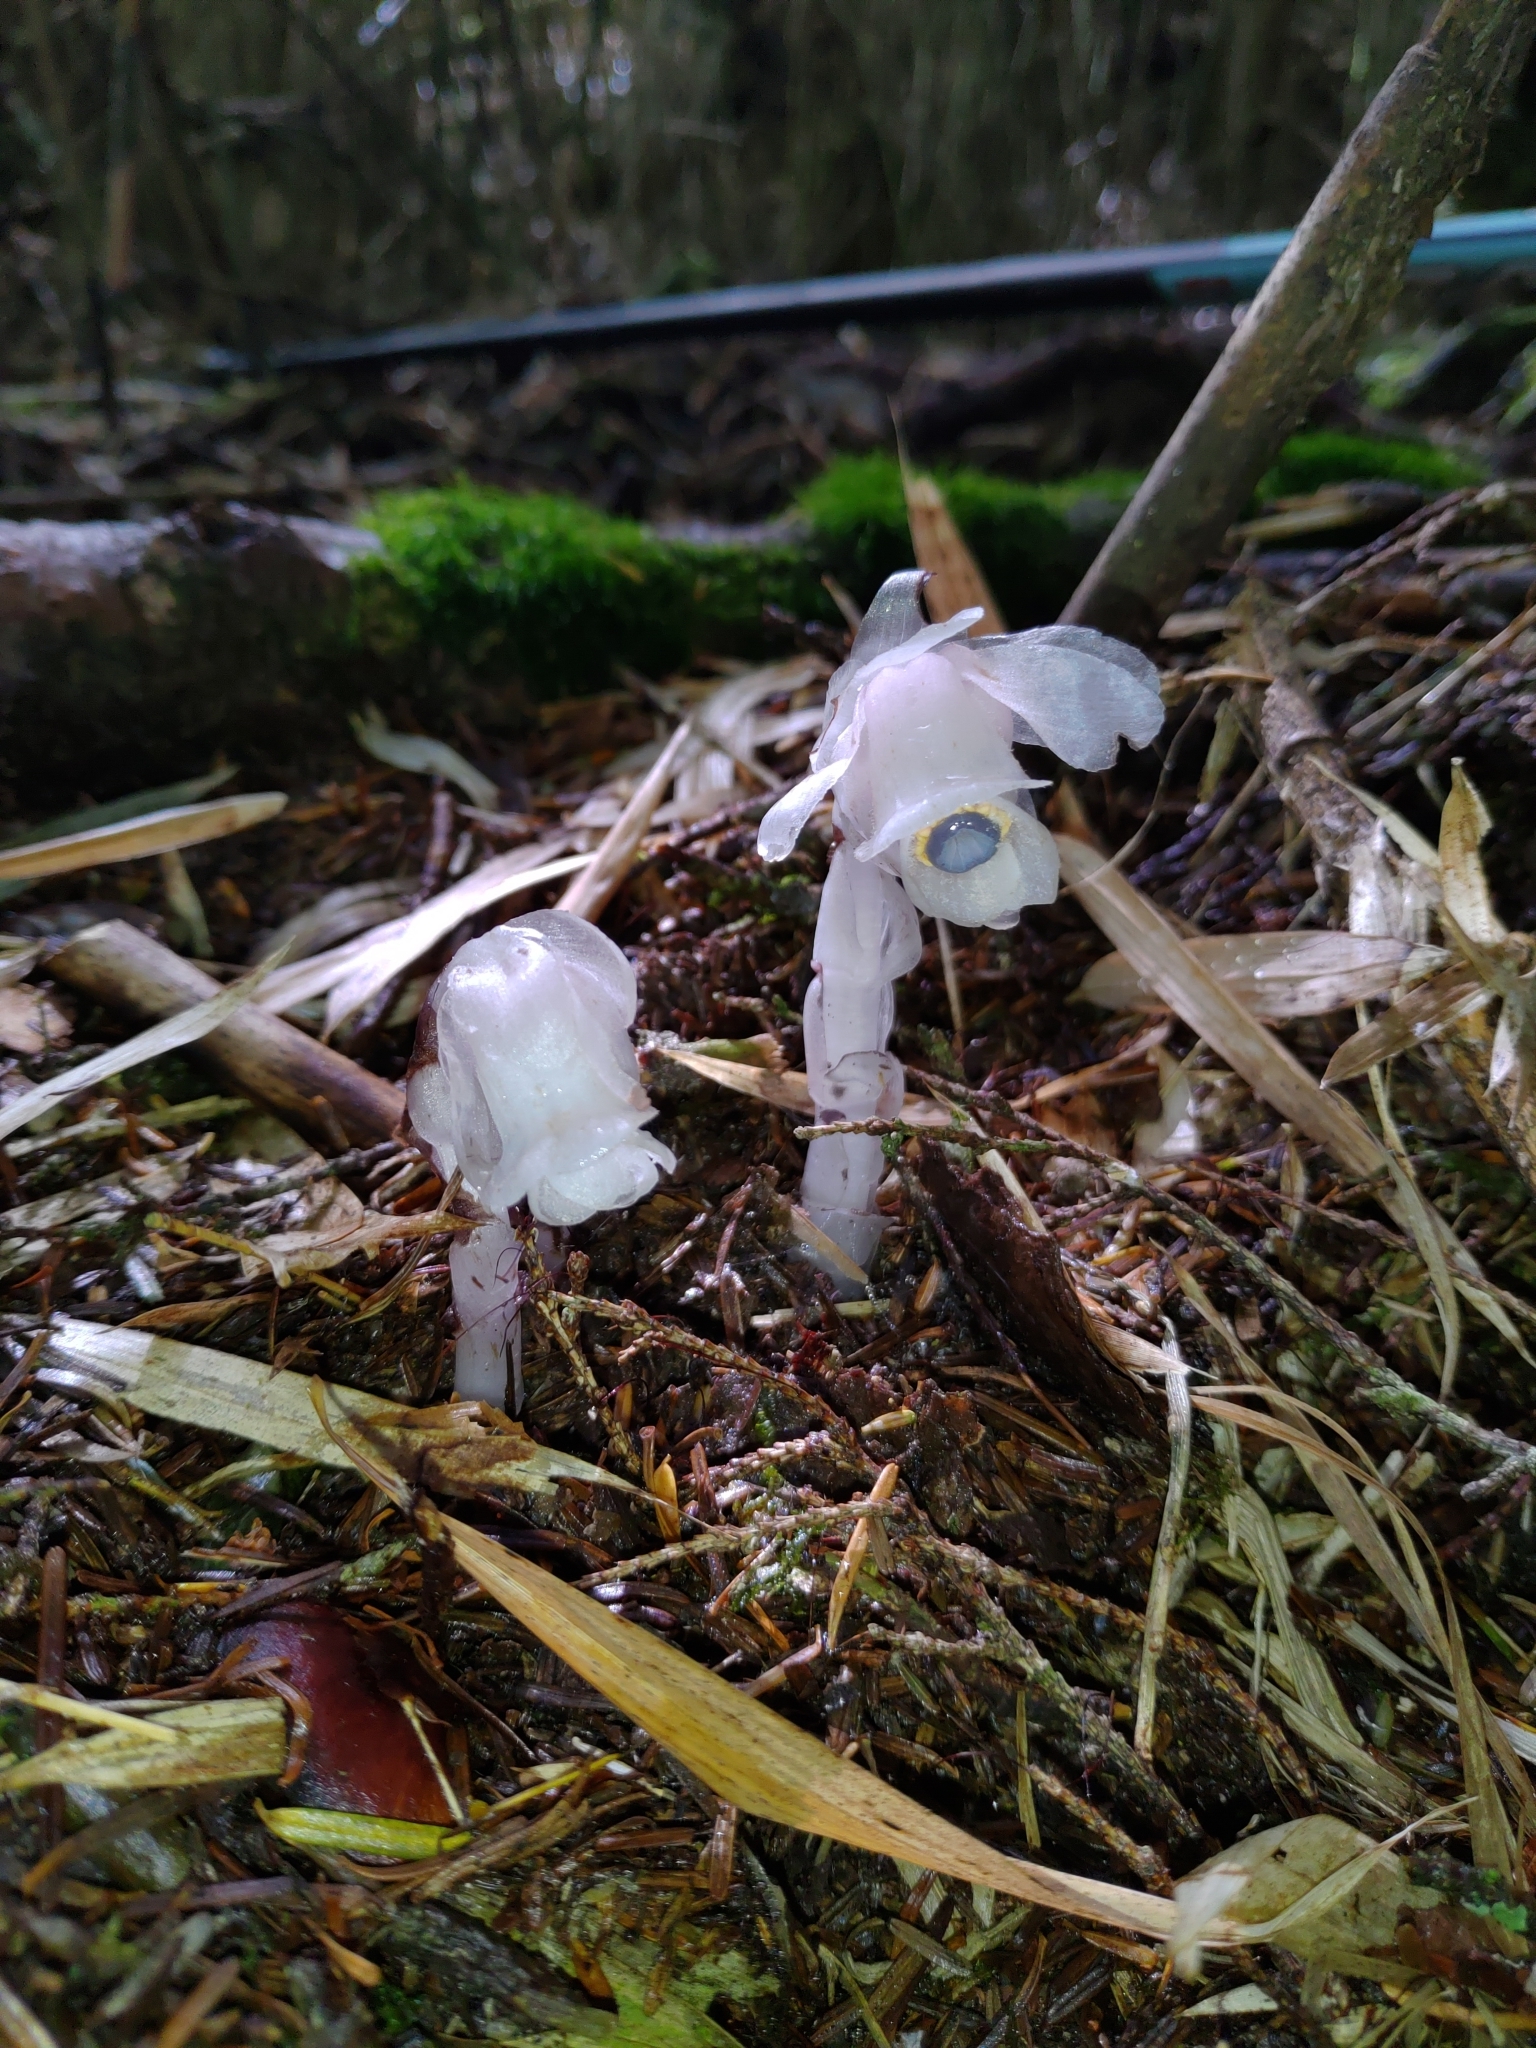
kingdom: Plantae
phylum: Tracheophyta
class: Magnoliopsida
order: Ericales
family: Ericaceae
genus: Monotropastrum
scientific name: Monotropastrum humile
